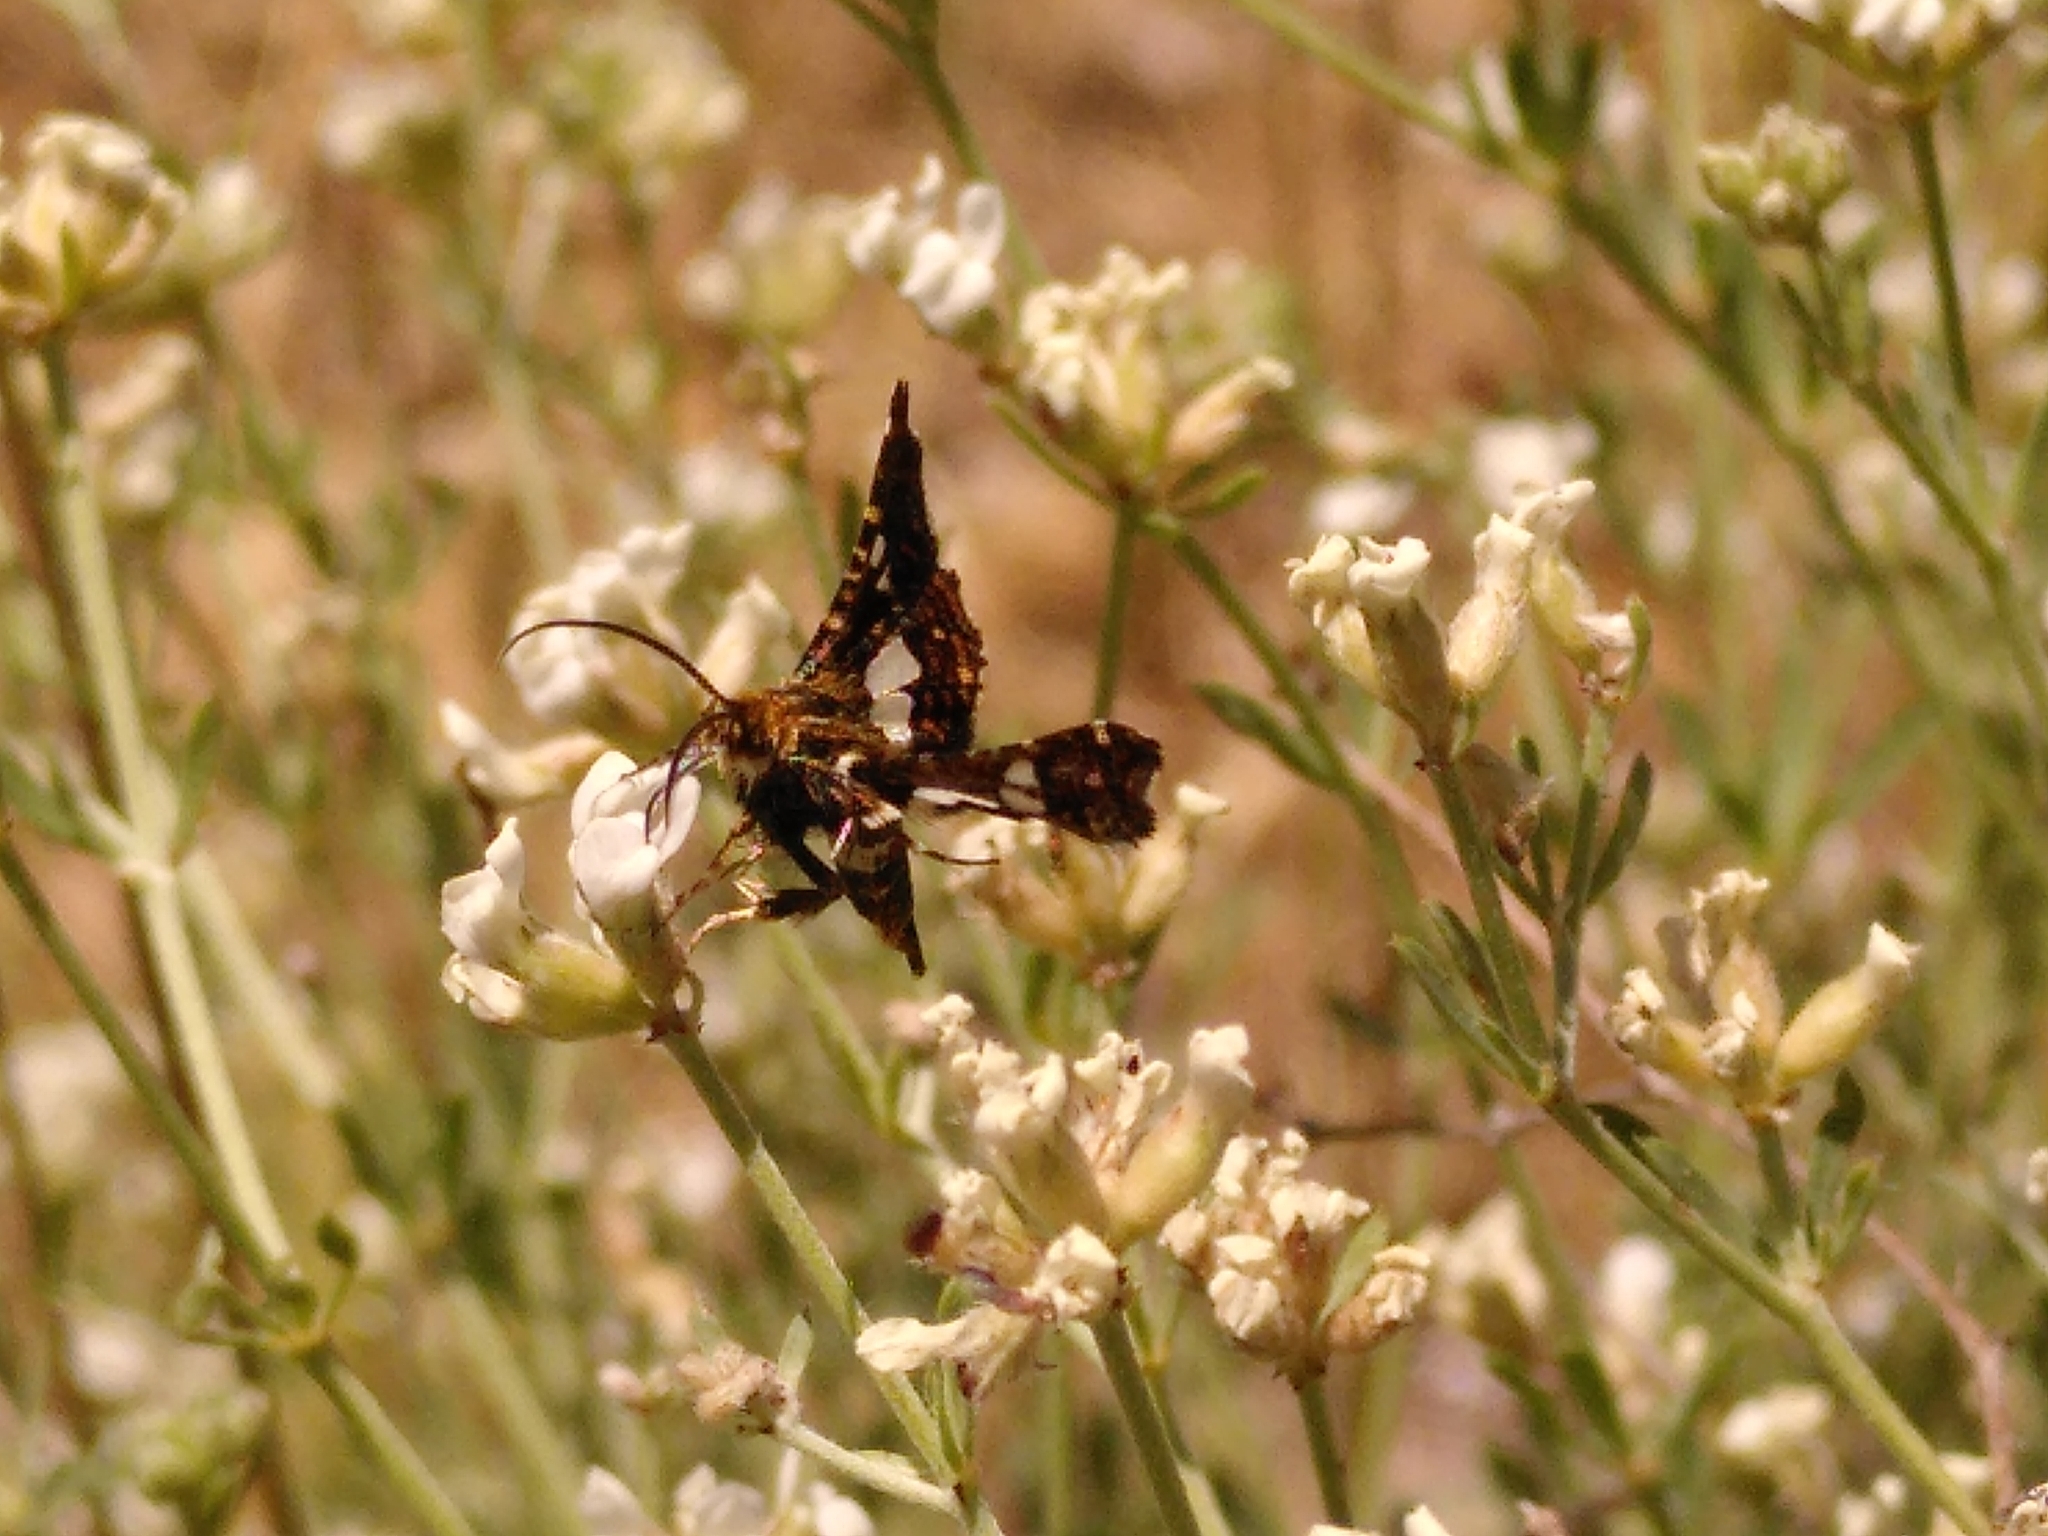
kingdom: Animalia
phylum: Arthropoda
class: Insecta
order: Lepidoptera
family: Thyrididae
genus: Thyris
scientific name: Thyris fenestrella
